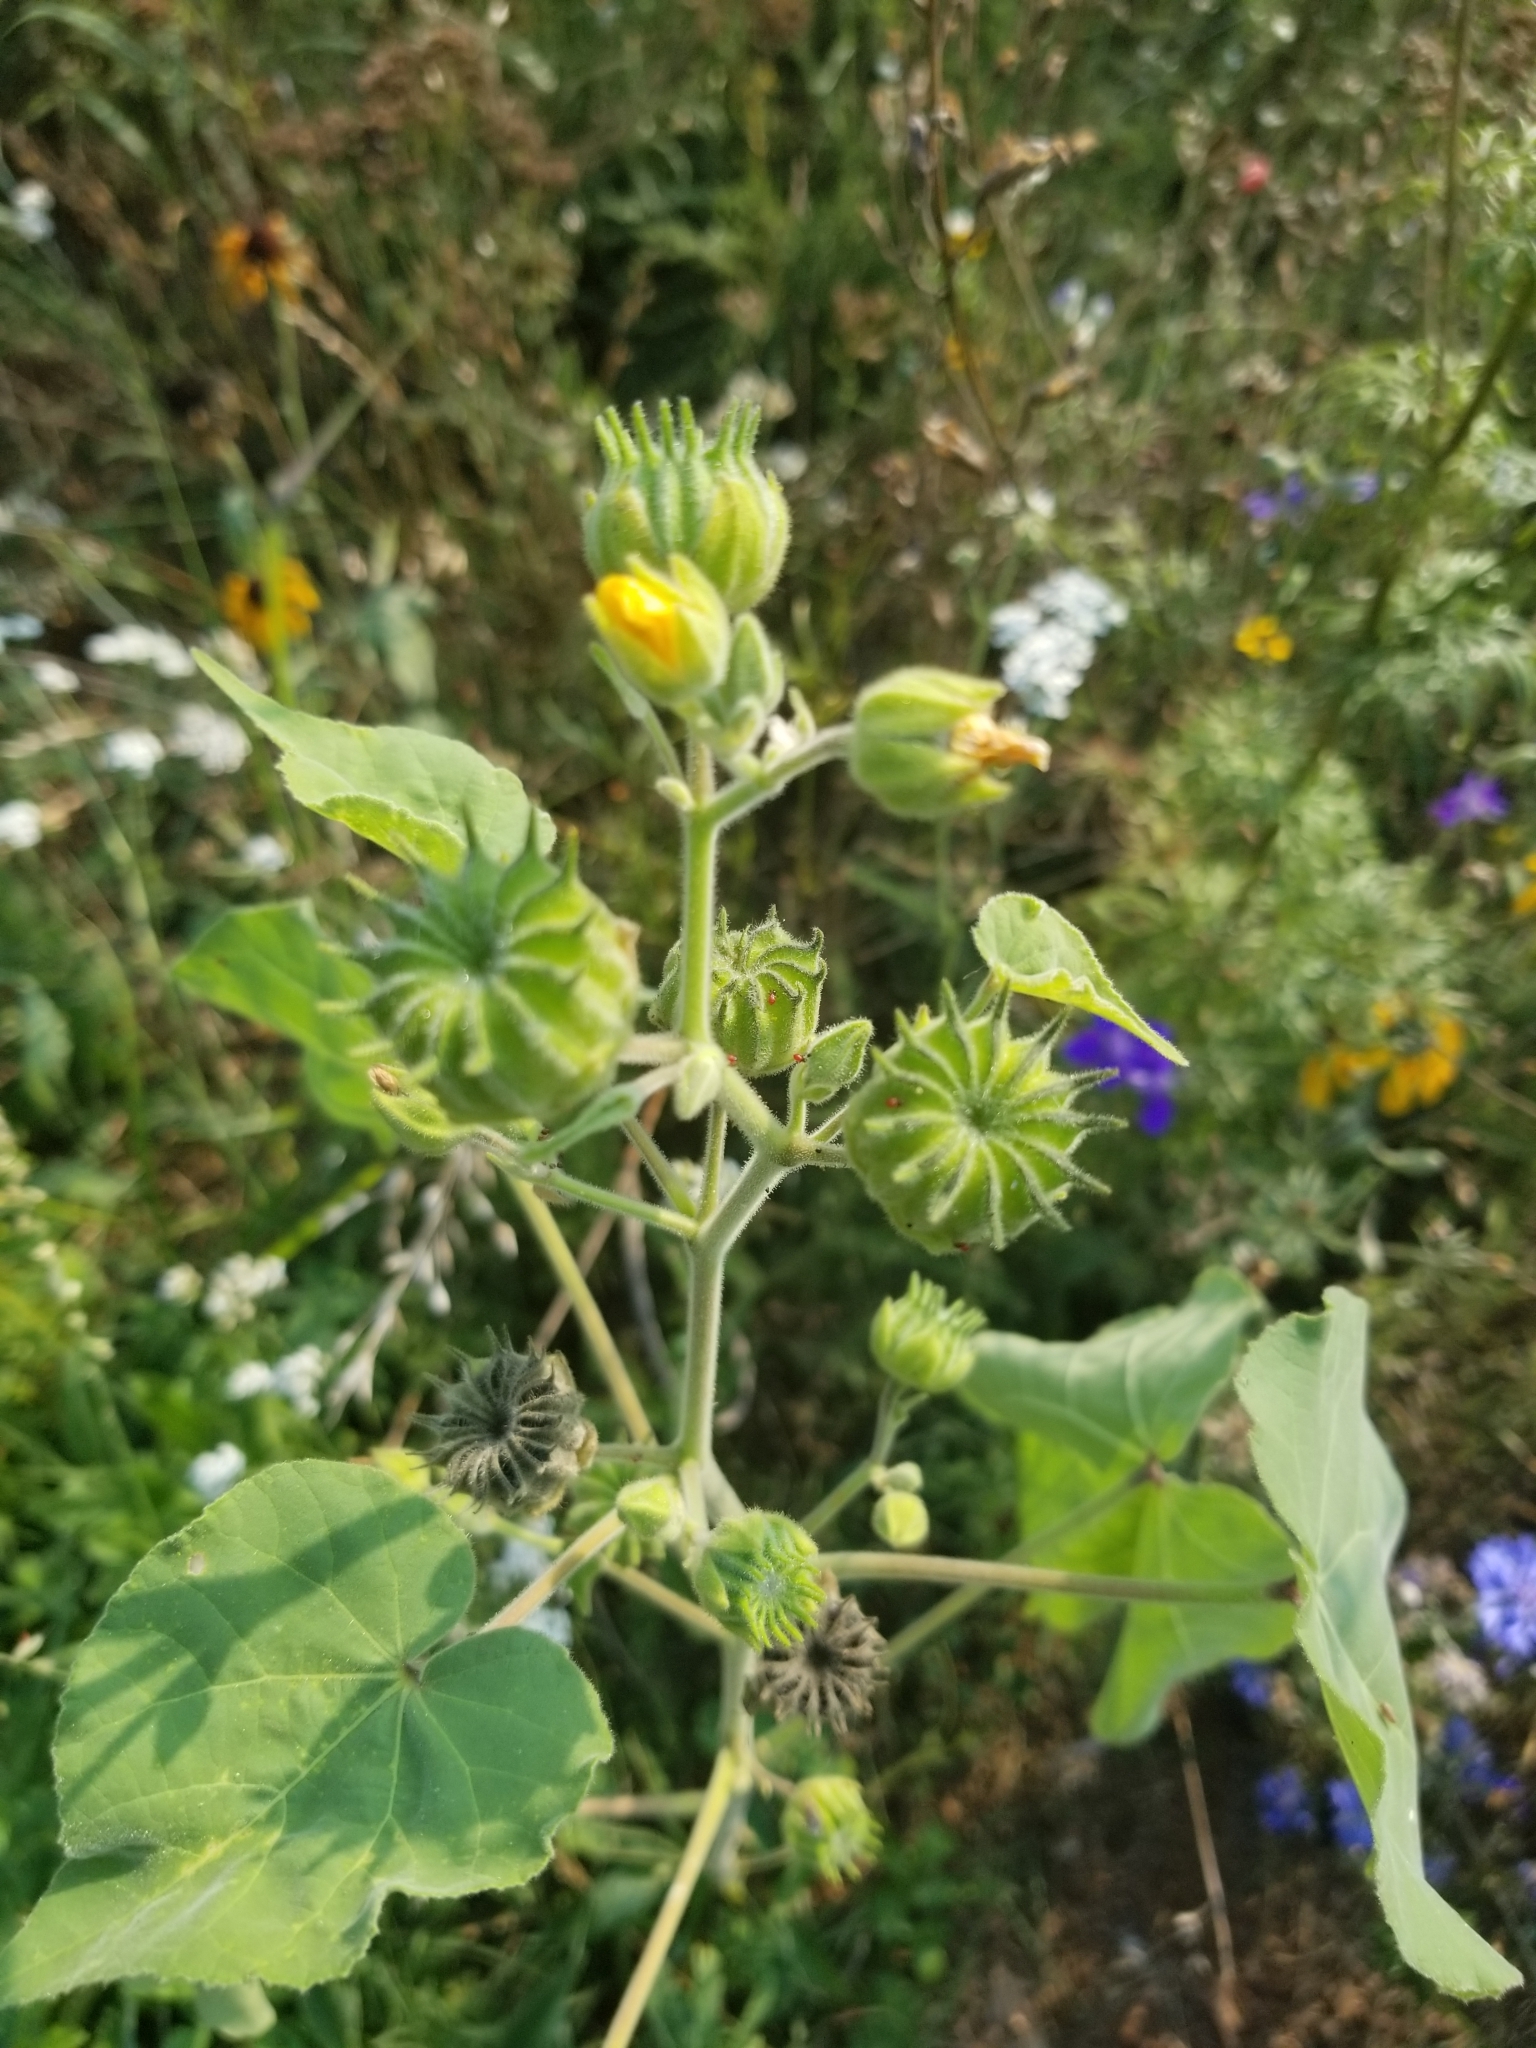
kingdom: Plantae
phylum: Tracheophyta
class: Magnoliopsida
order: Malvales
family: Malvaceae
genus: Abutilon
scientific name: Abutilon theophrasti
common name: Velvetleaf
